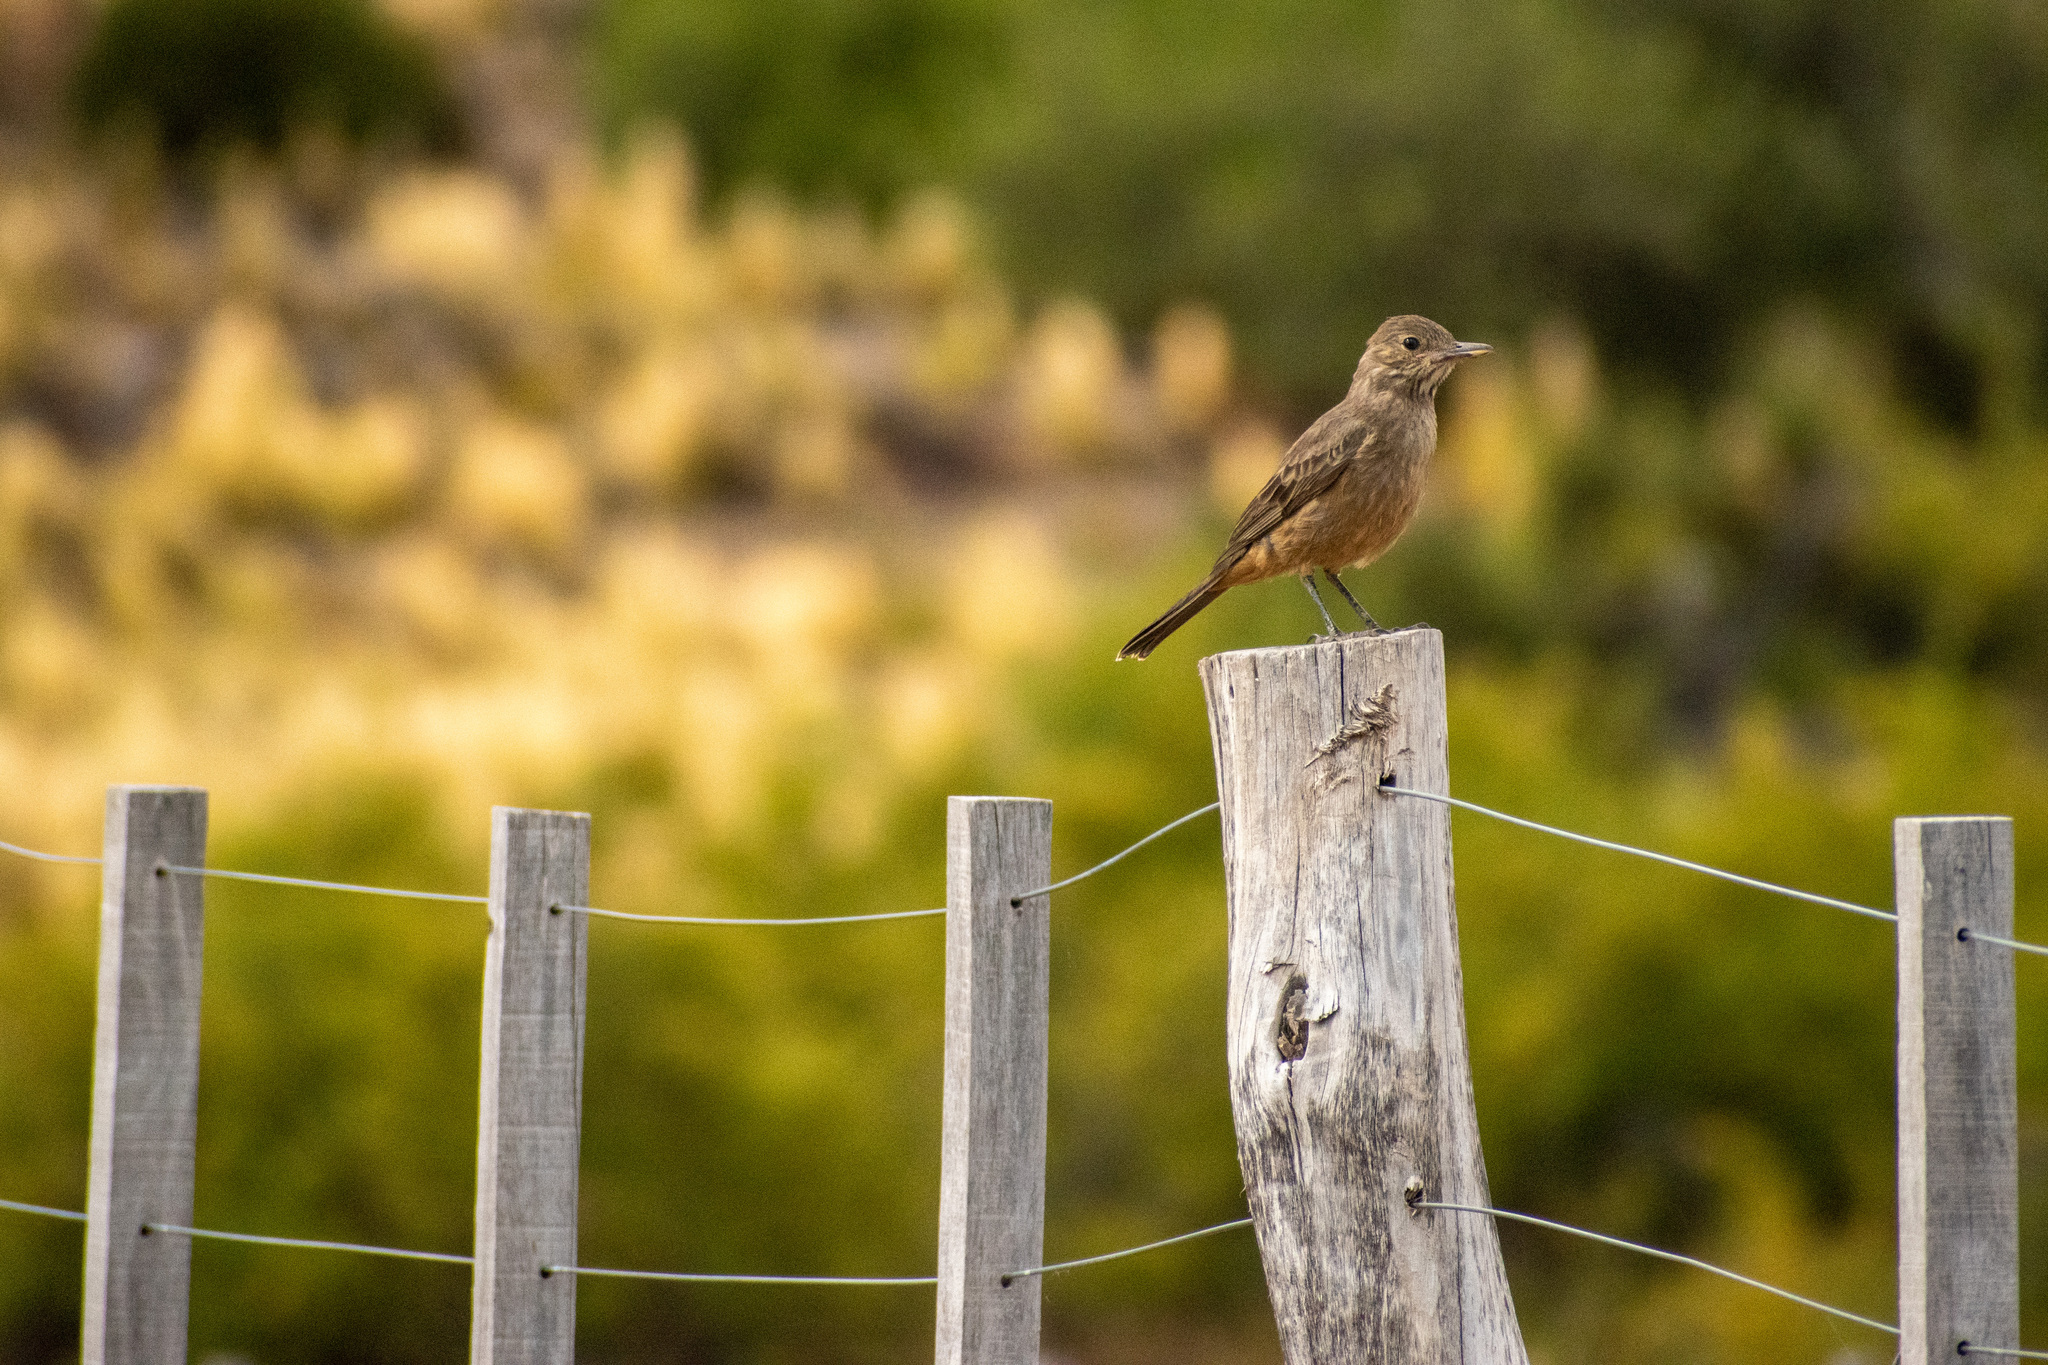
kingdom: Animalia
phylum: Chordata
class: Aves
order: Passeriformes
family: Tyrannidae
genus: Agriornis
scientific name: Agriornis lividus
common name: Great shrike-tyrant
